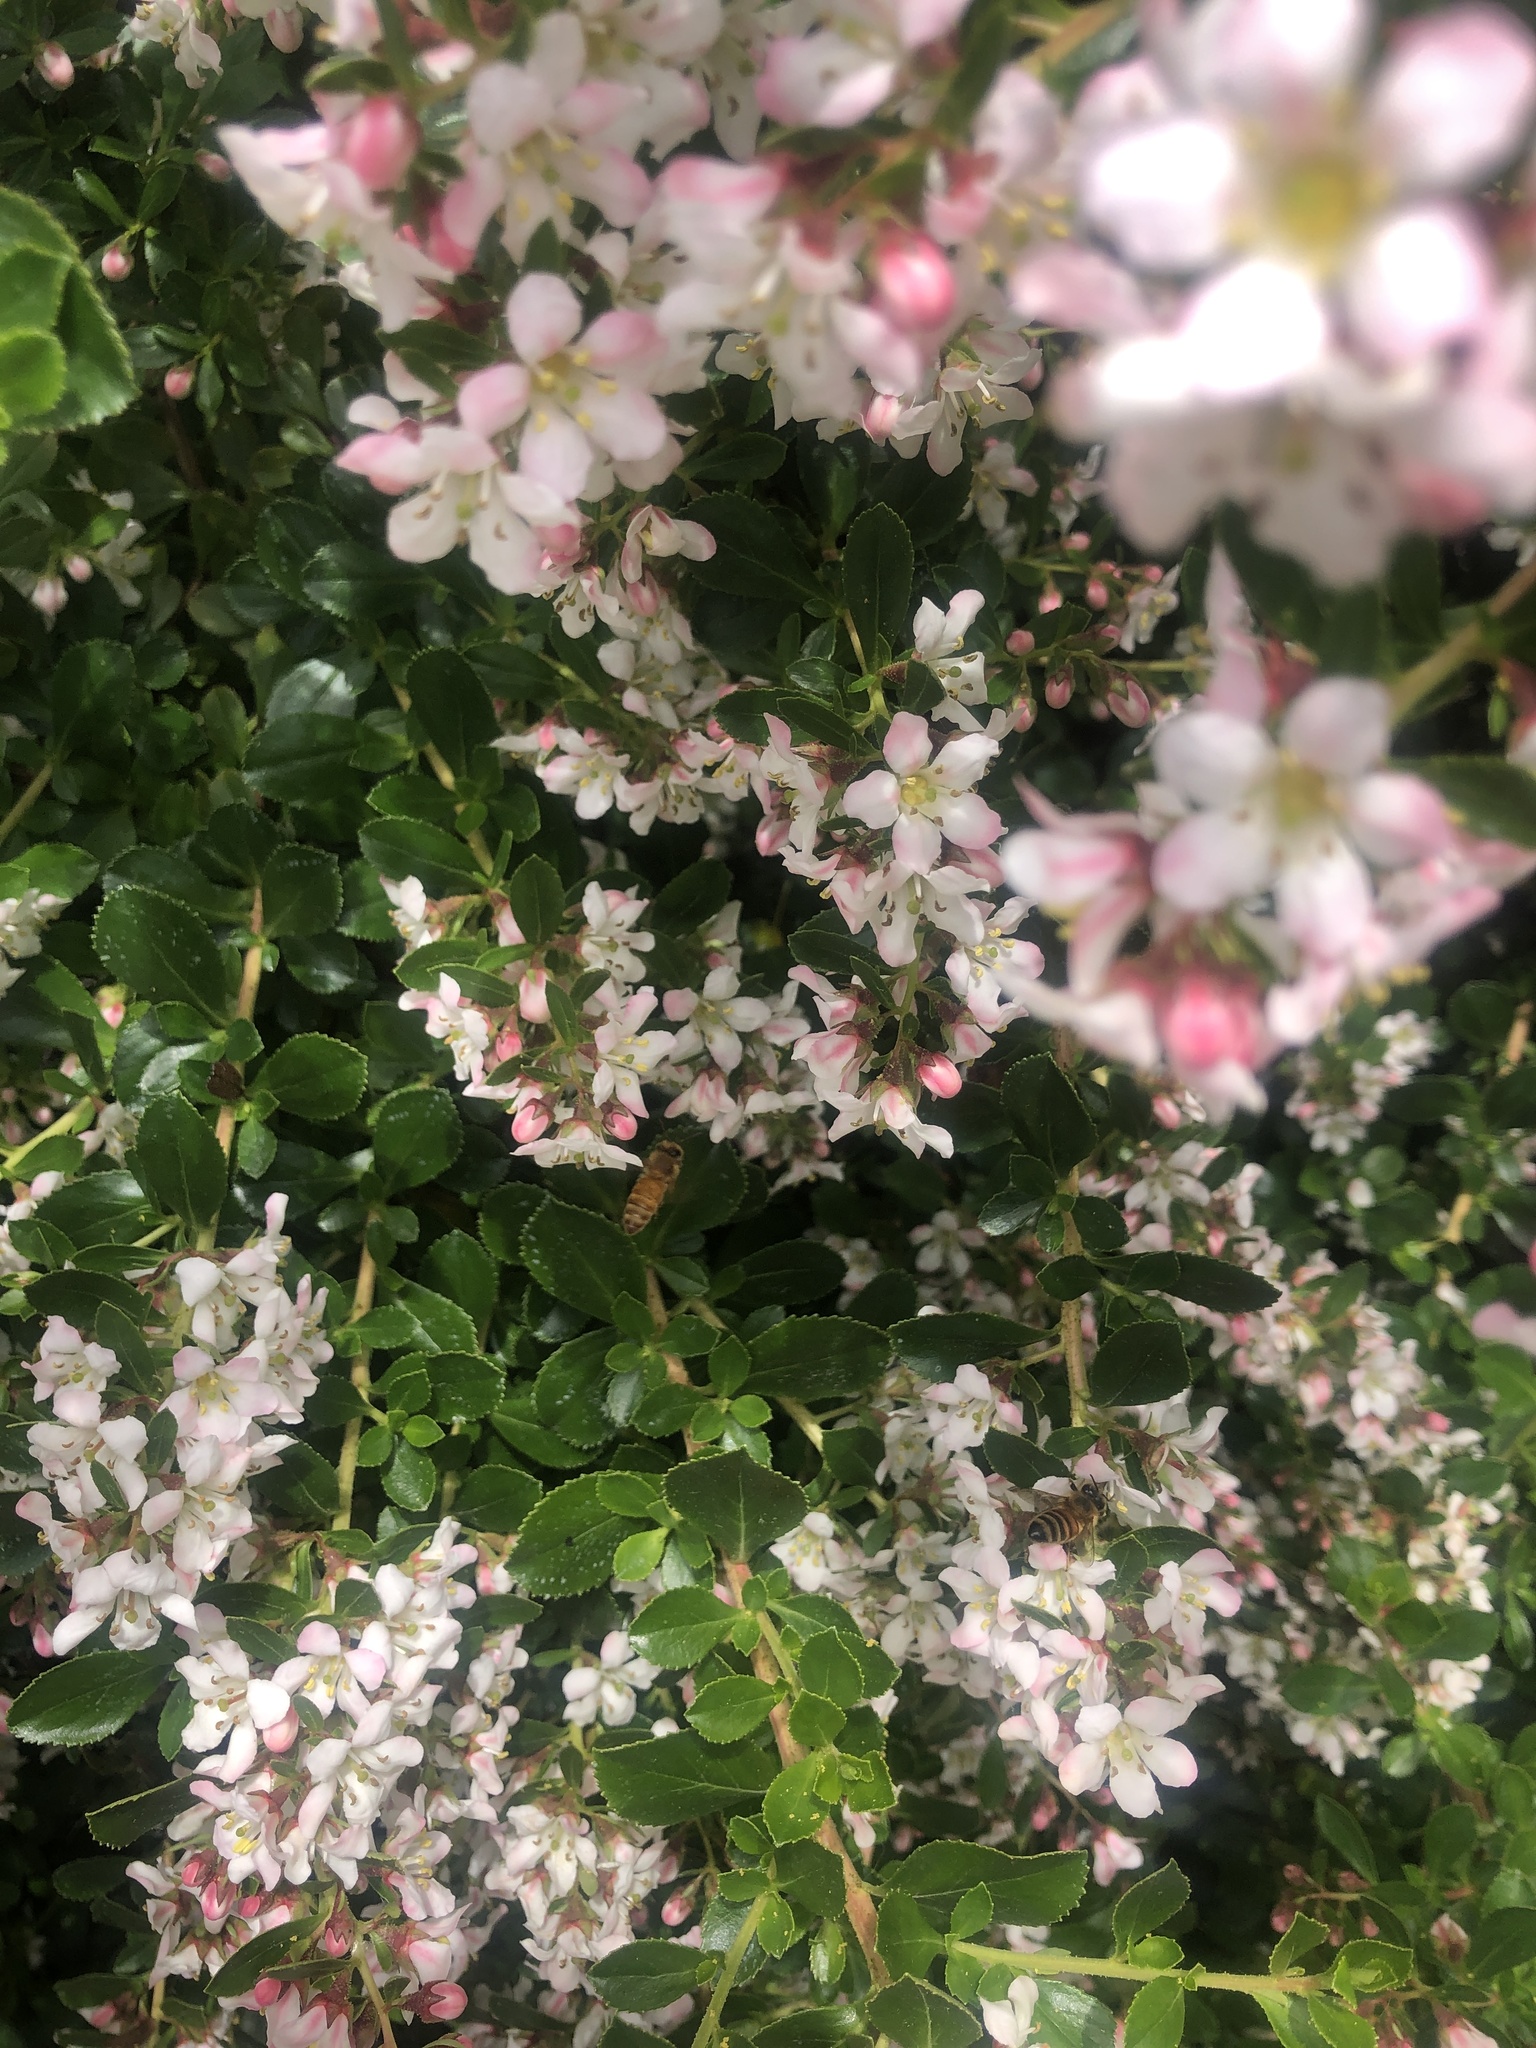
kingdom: Animalia
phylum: Arthropoda
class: Insecta
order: Hymenoptera
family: Apidae
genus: Apis
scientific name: Apis mellifera
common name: Honey bee
